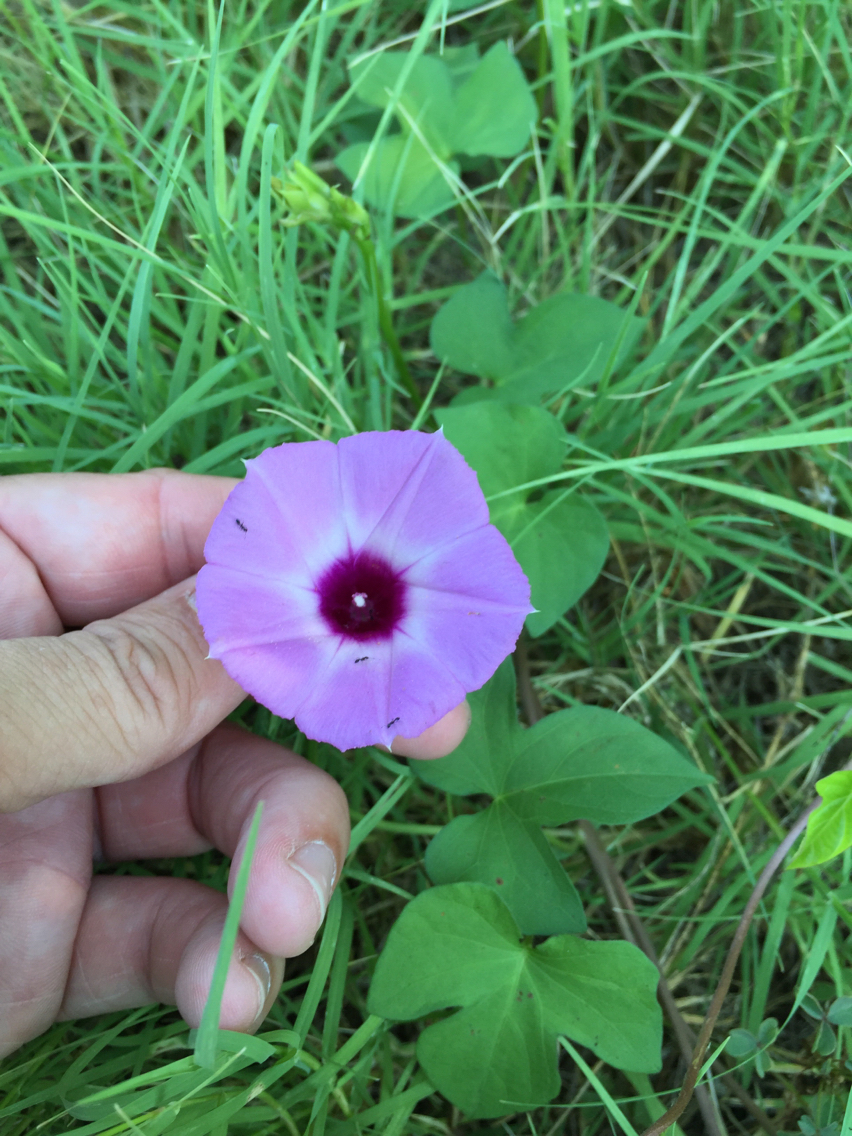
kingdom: Plantae
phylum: Tracheophyta
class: Magnoliopsida
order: Solanales
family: Convolvulaceae
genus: Ipomoea
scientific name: Ipomoea cordatotriloba
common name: Cotton morning glory
